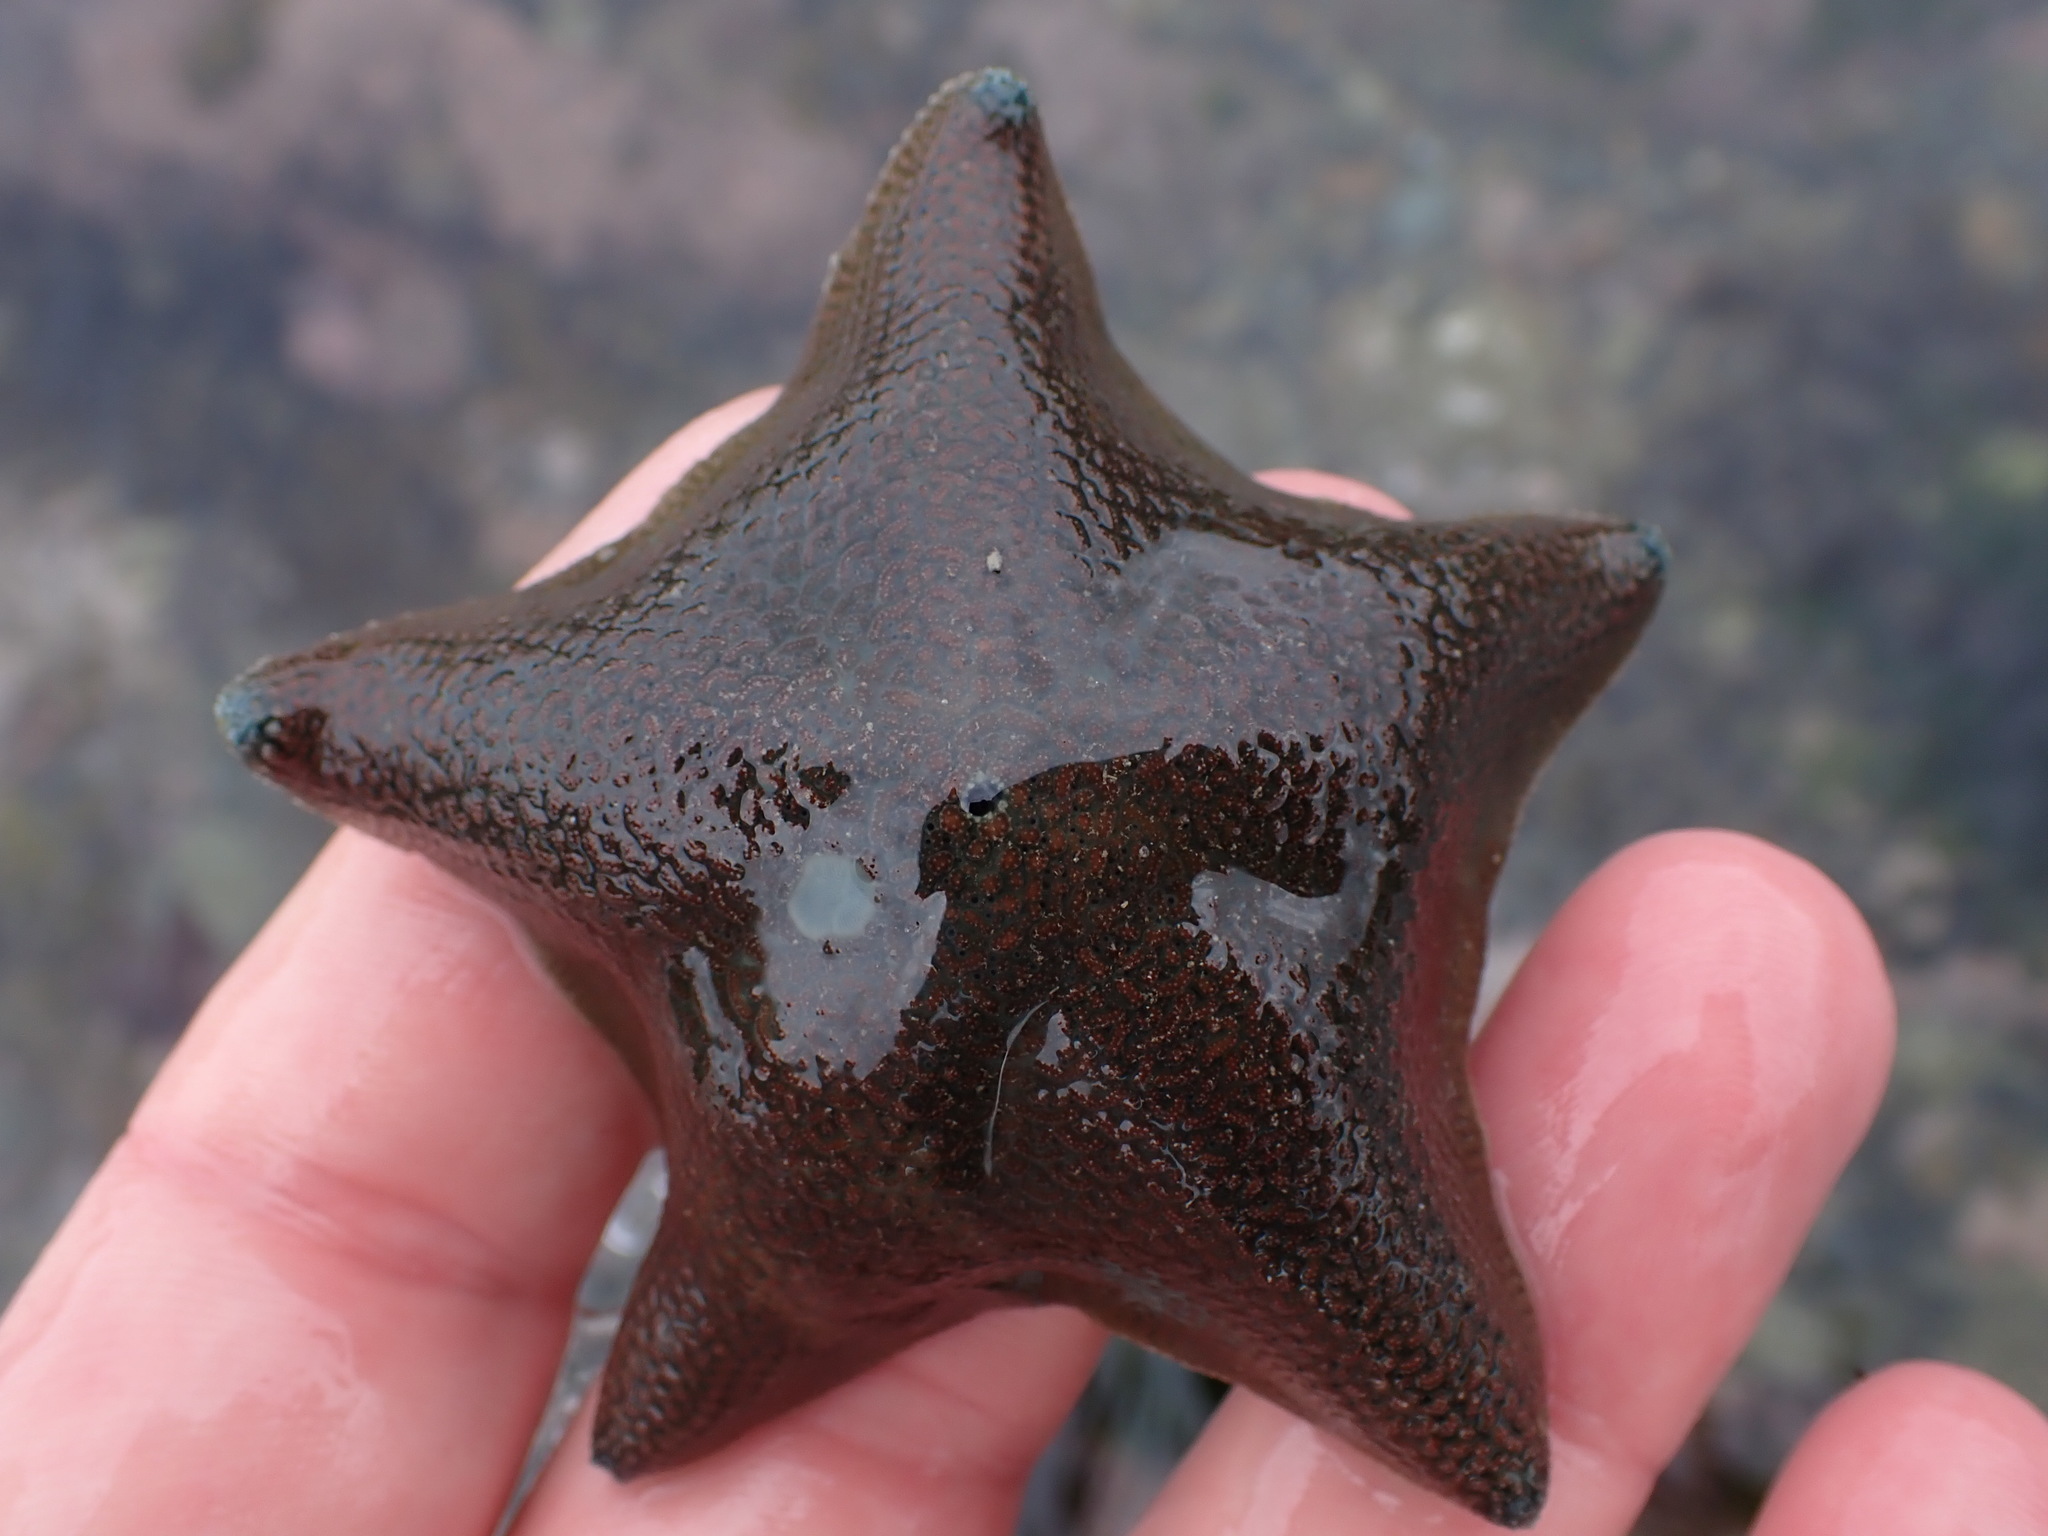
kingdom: Animalia
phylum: Echinodermata
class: Asteroidea
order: Valvatida
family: Asterinidae
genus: Patiriella
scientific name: Patiriella regularis
